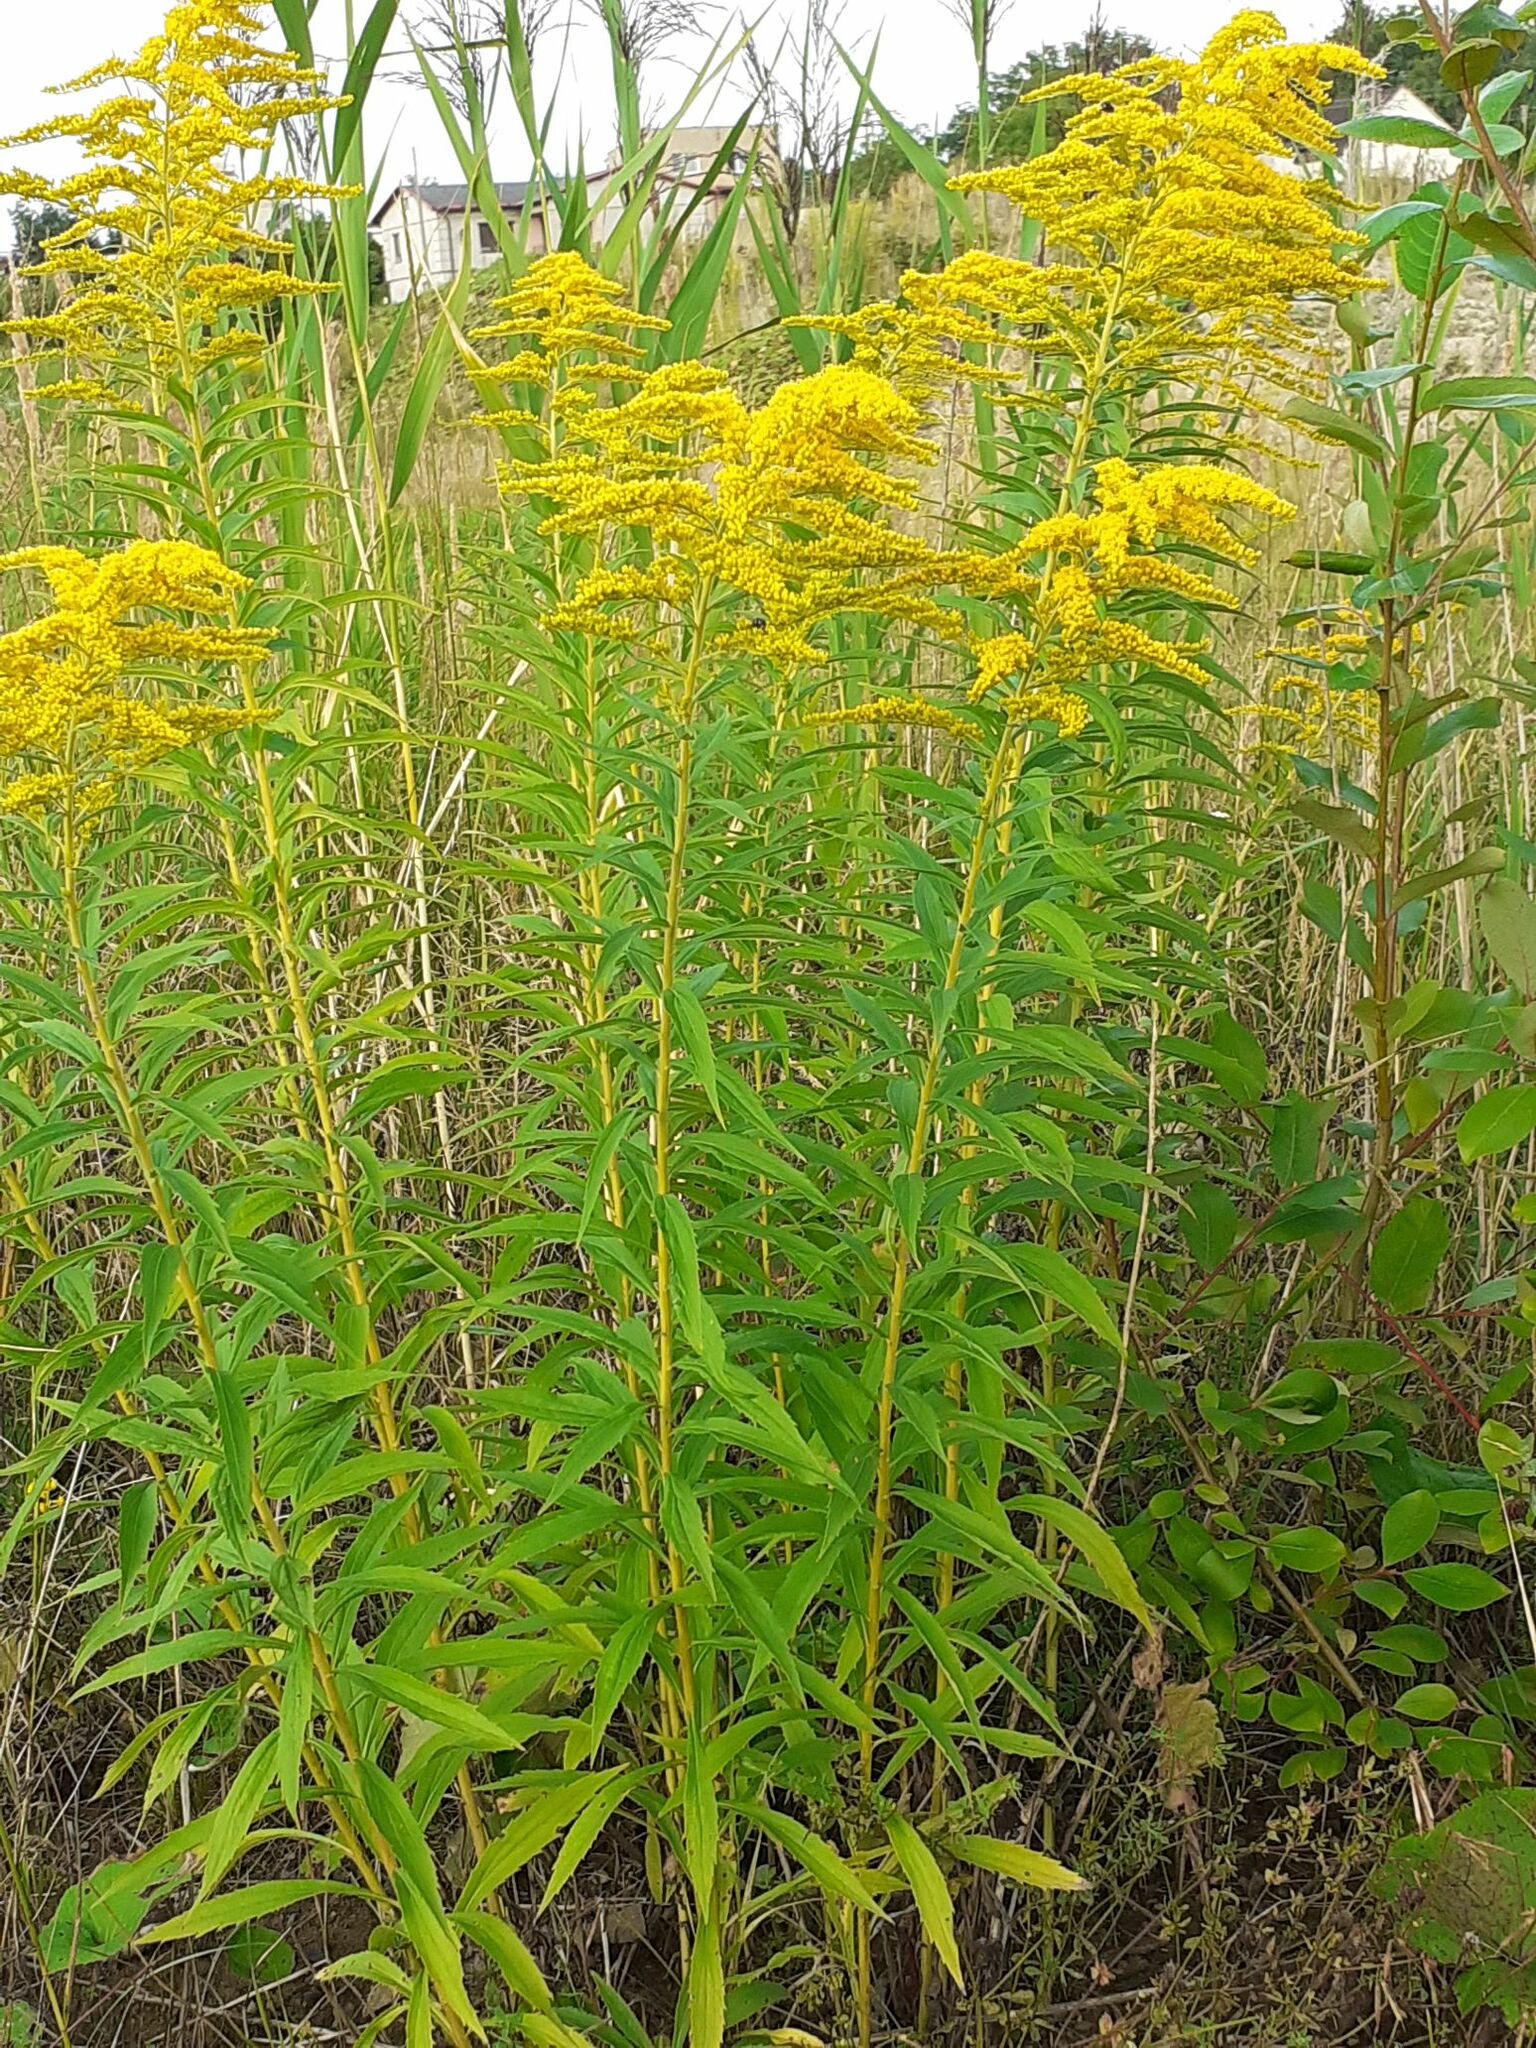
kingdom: Plantae
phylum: Tracheophyta
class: Magnoliopsida
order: Asterales
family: Asteraceae
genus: Solidago
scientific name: Solidago canadensis
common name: Canada goldenrod
